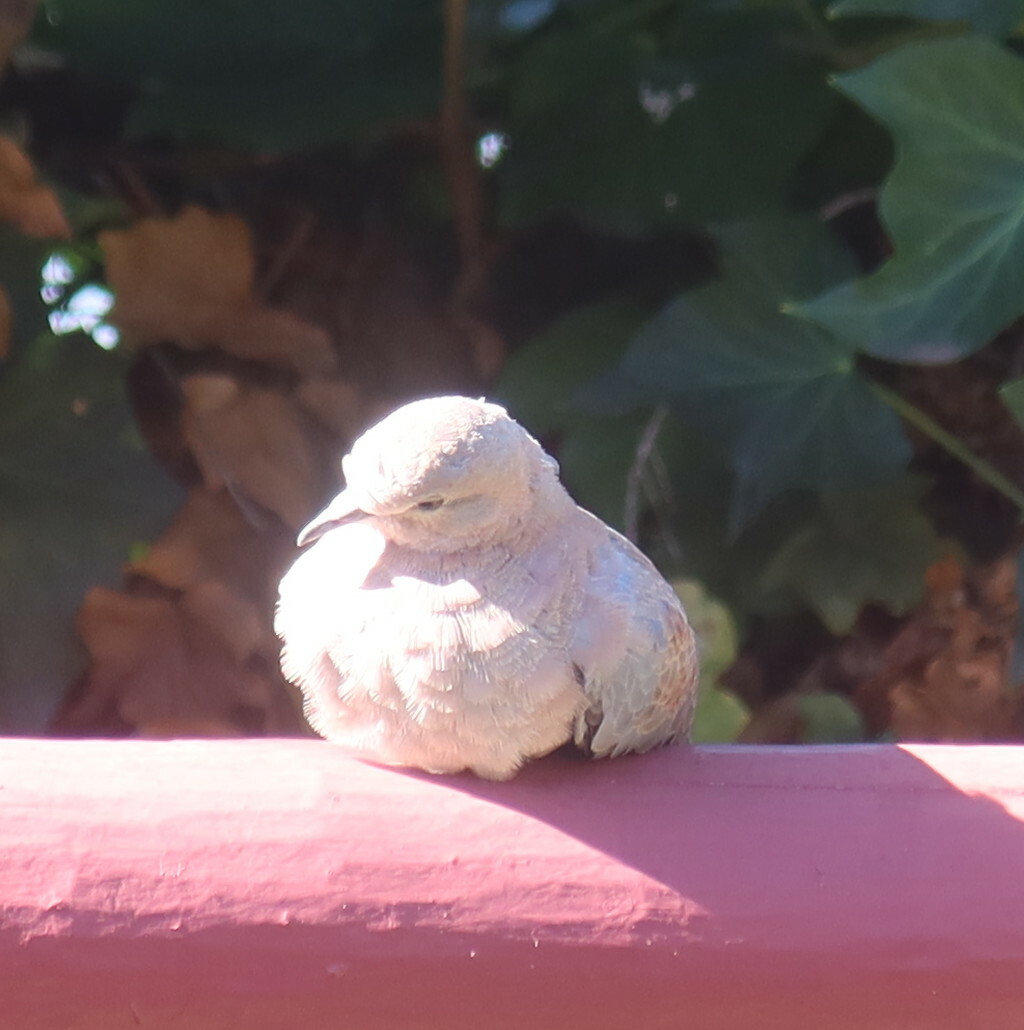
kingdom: Animalia
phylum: Chordata
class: Aves
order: Columbiformes
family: Columbidae
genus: Spilopelia
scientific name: Spilopelia senegalensis
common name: Laughing dove
